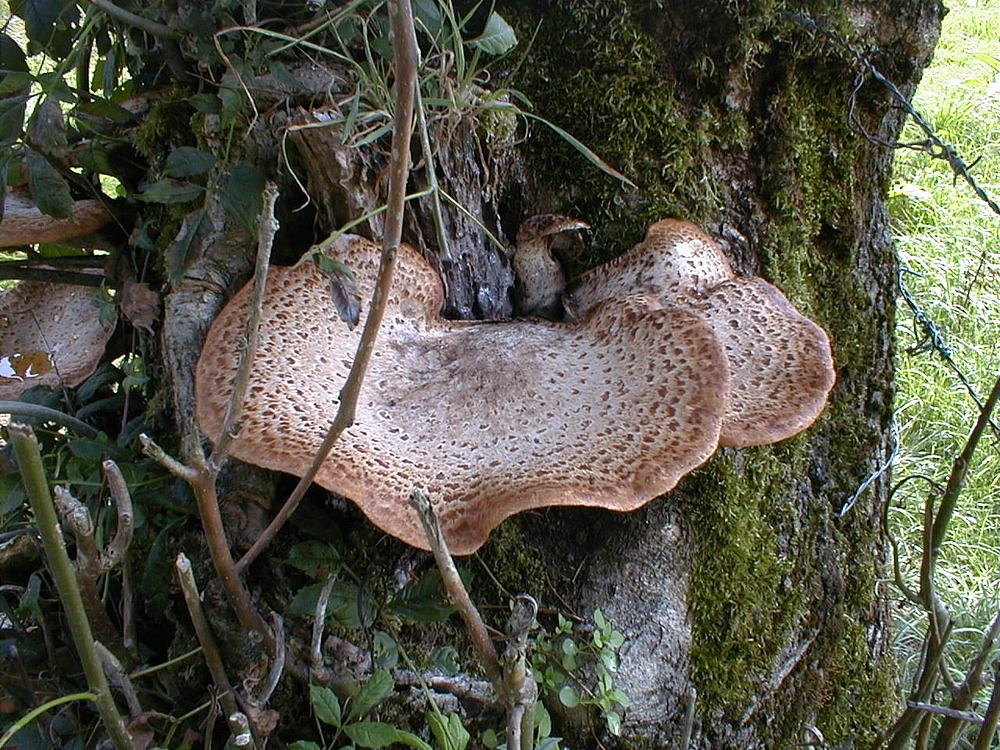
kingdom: Fungi
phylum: Basidiomycota
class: Agaricomycetes
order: Polyporales
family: Polyporaceae
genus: Cerioporus
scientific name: Cerioporus squamosus
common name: Dryad's saddle
